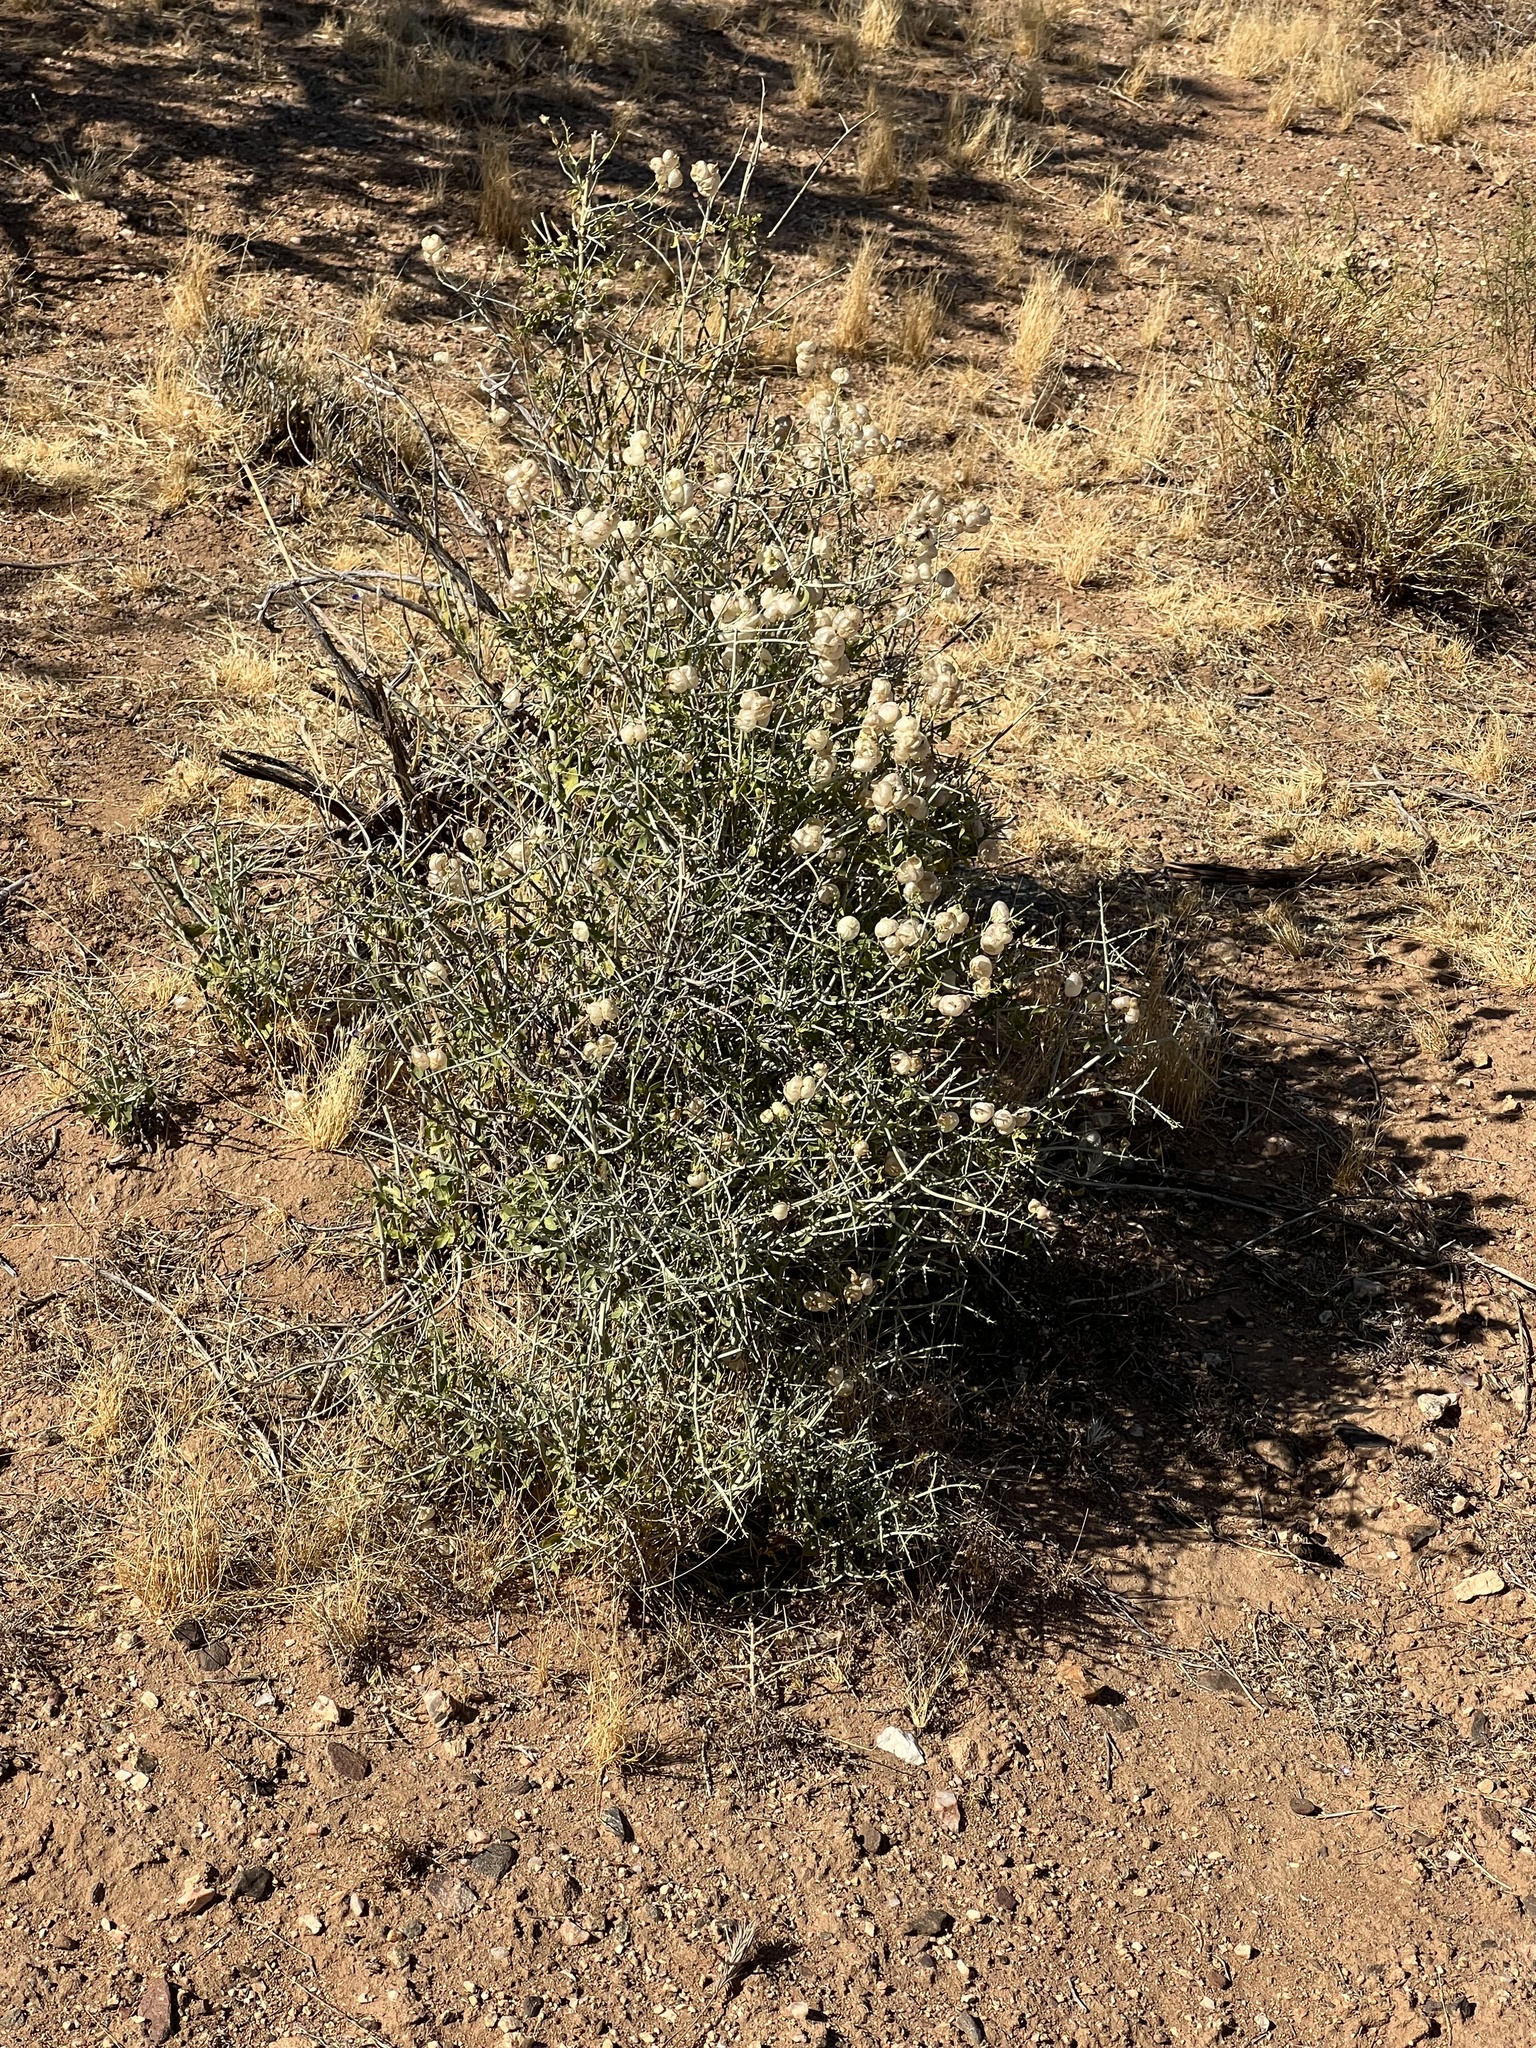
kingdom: Plantae
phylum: Tracheophyta
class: Magnoliopsida
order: Lamiales
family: Lamiaceae
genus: Scutellaria
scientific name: Scutellaria mexicana
